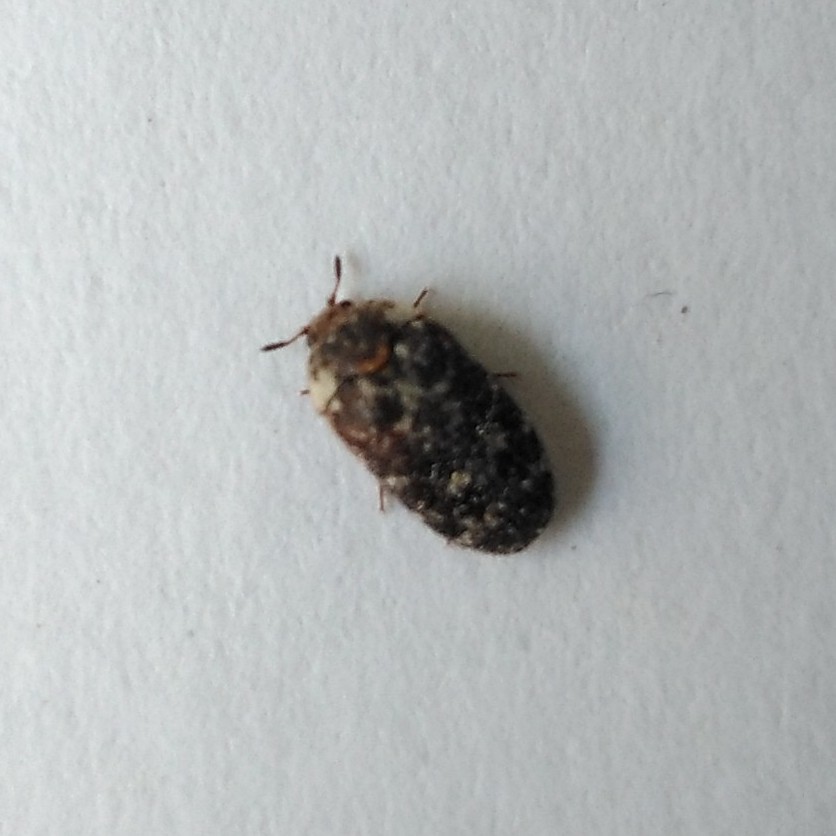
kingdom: Animalia
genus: Paranovelsis
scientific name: Paranovelsis
